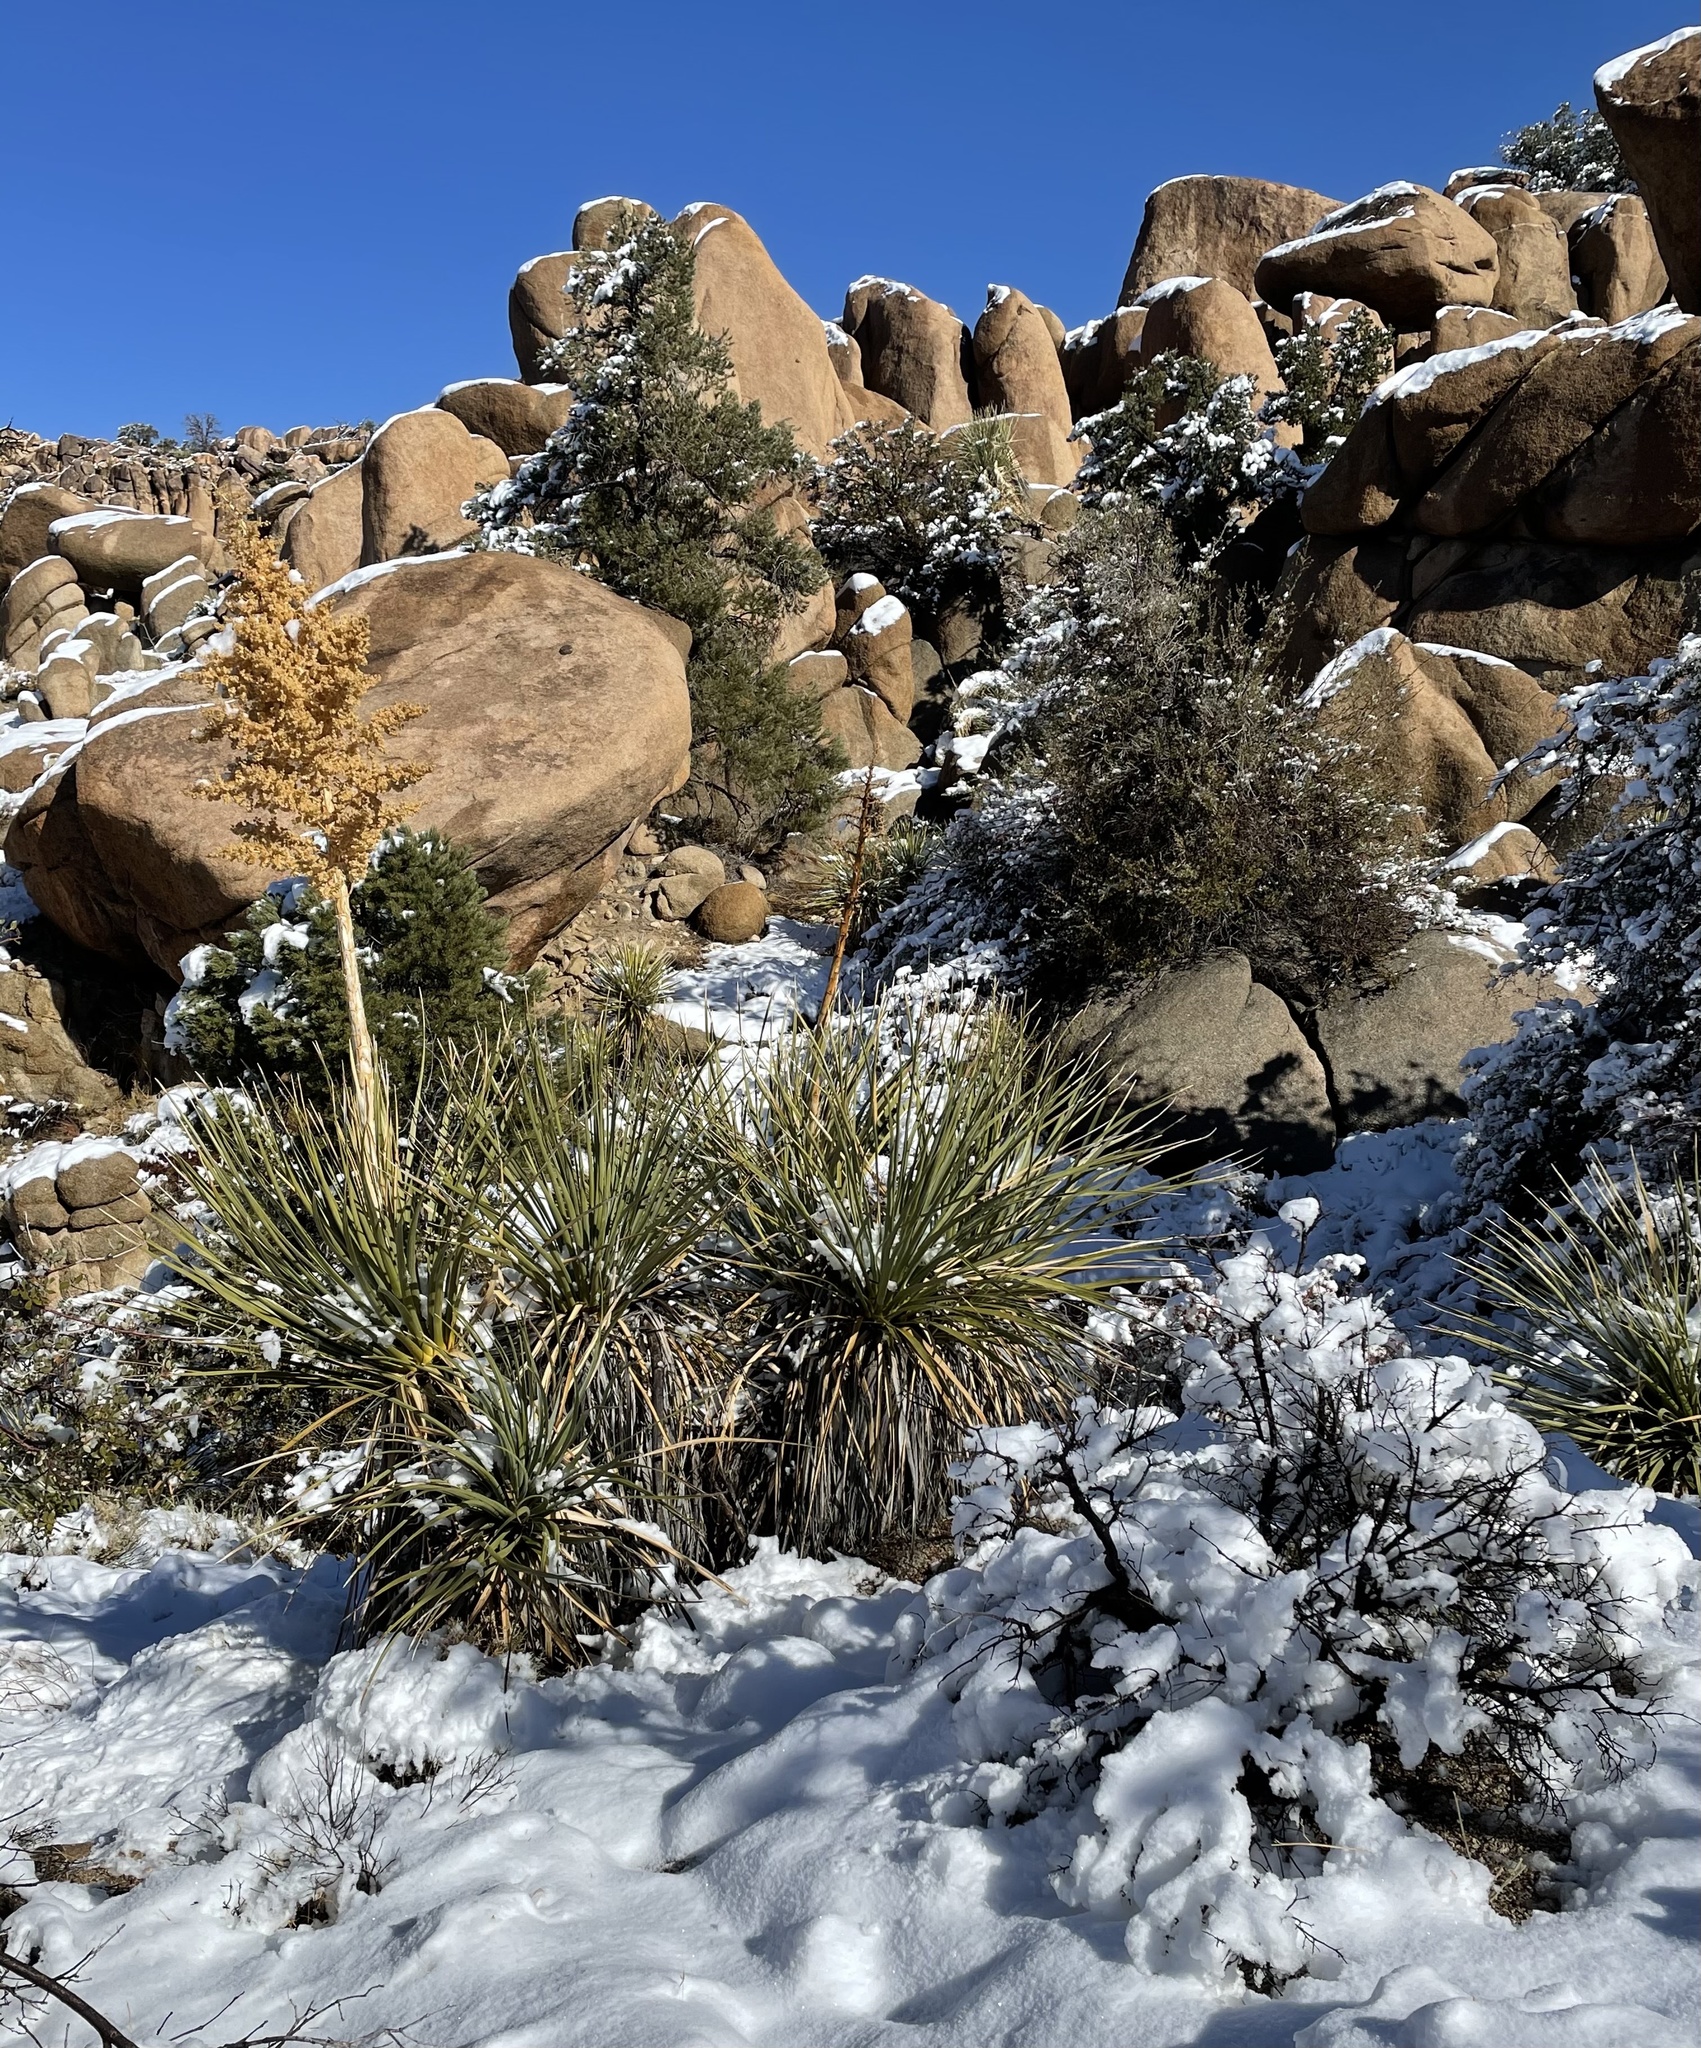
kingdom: Plantae
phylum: Tracheophyta
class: Liliopsida
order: Asparagales
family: Asparagaceae
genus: Nolina
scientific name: Nolina parryi
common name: Parry nolina
